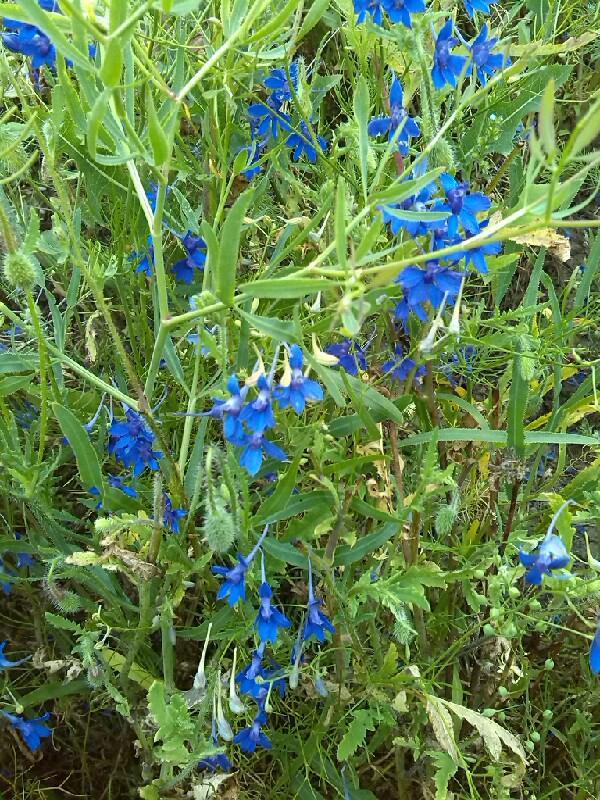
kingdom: Plantae
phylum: Tracheophyta
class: Magnoliopsida
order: Ranunculales
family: Ranunculaceae
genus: Delphinium
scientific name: Delphinium consolida
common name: Branching larkspur
